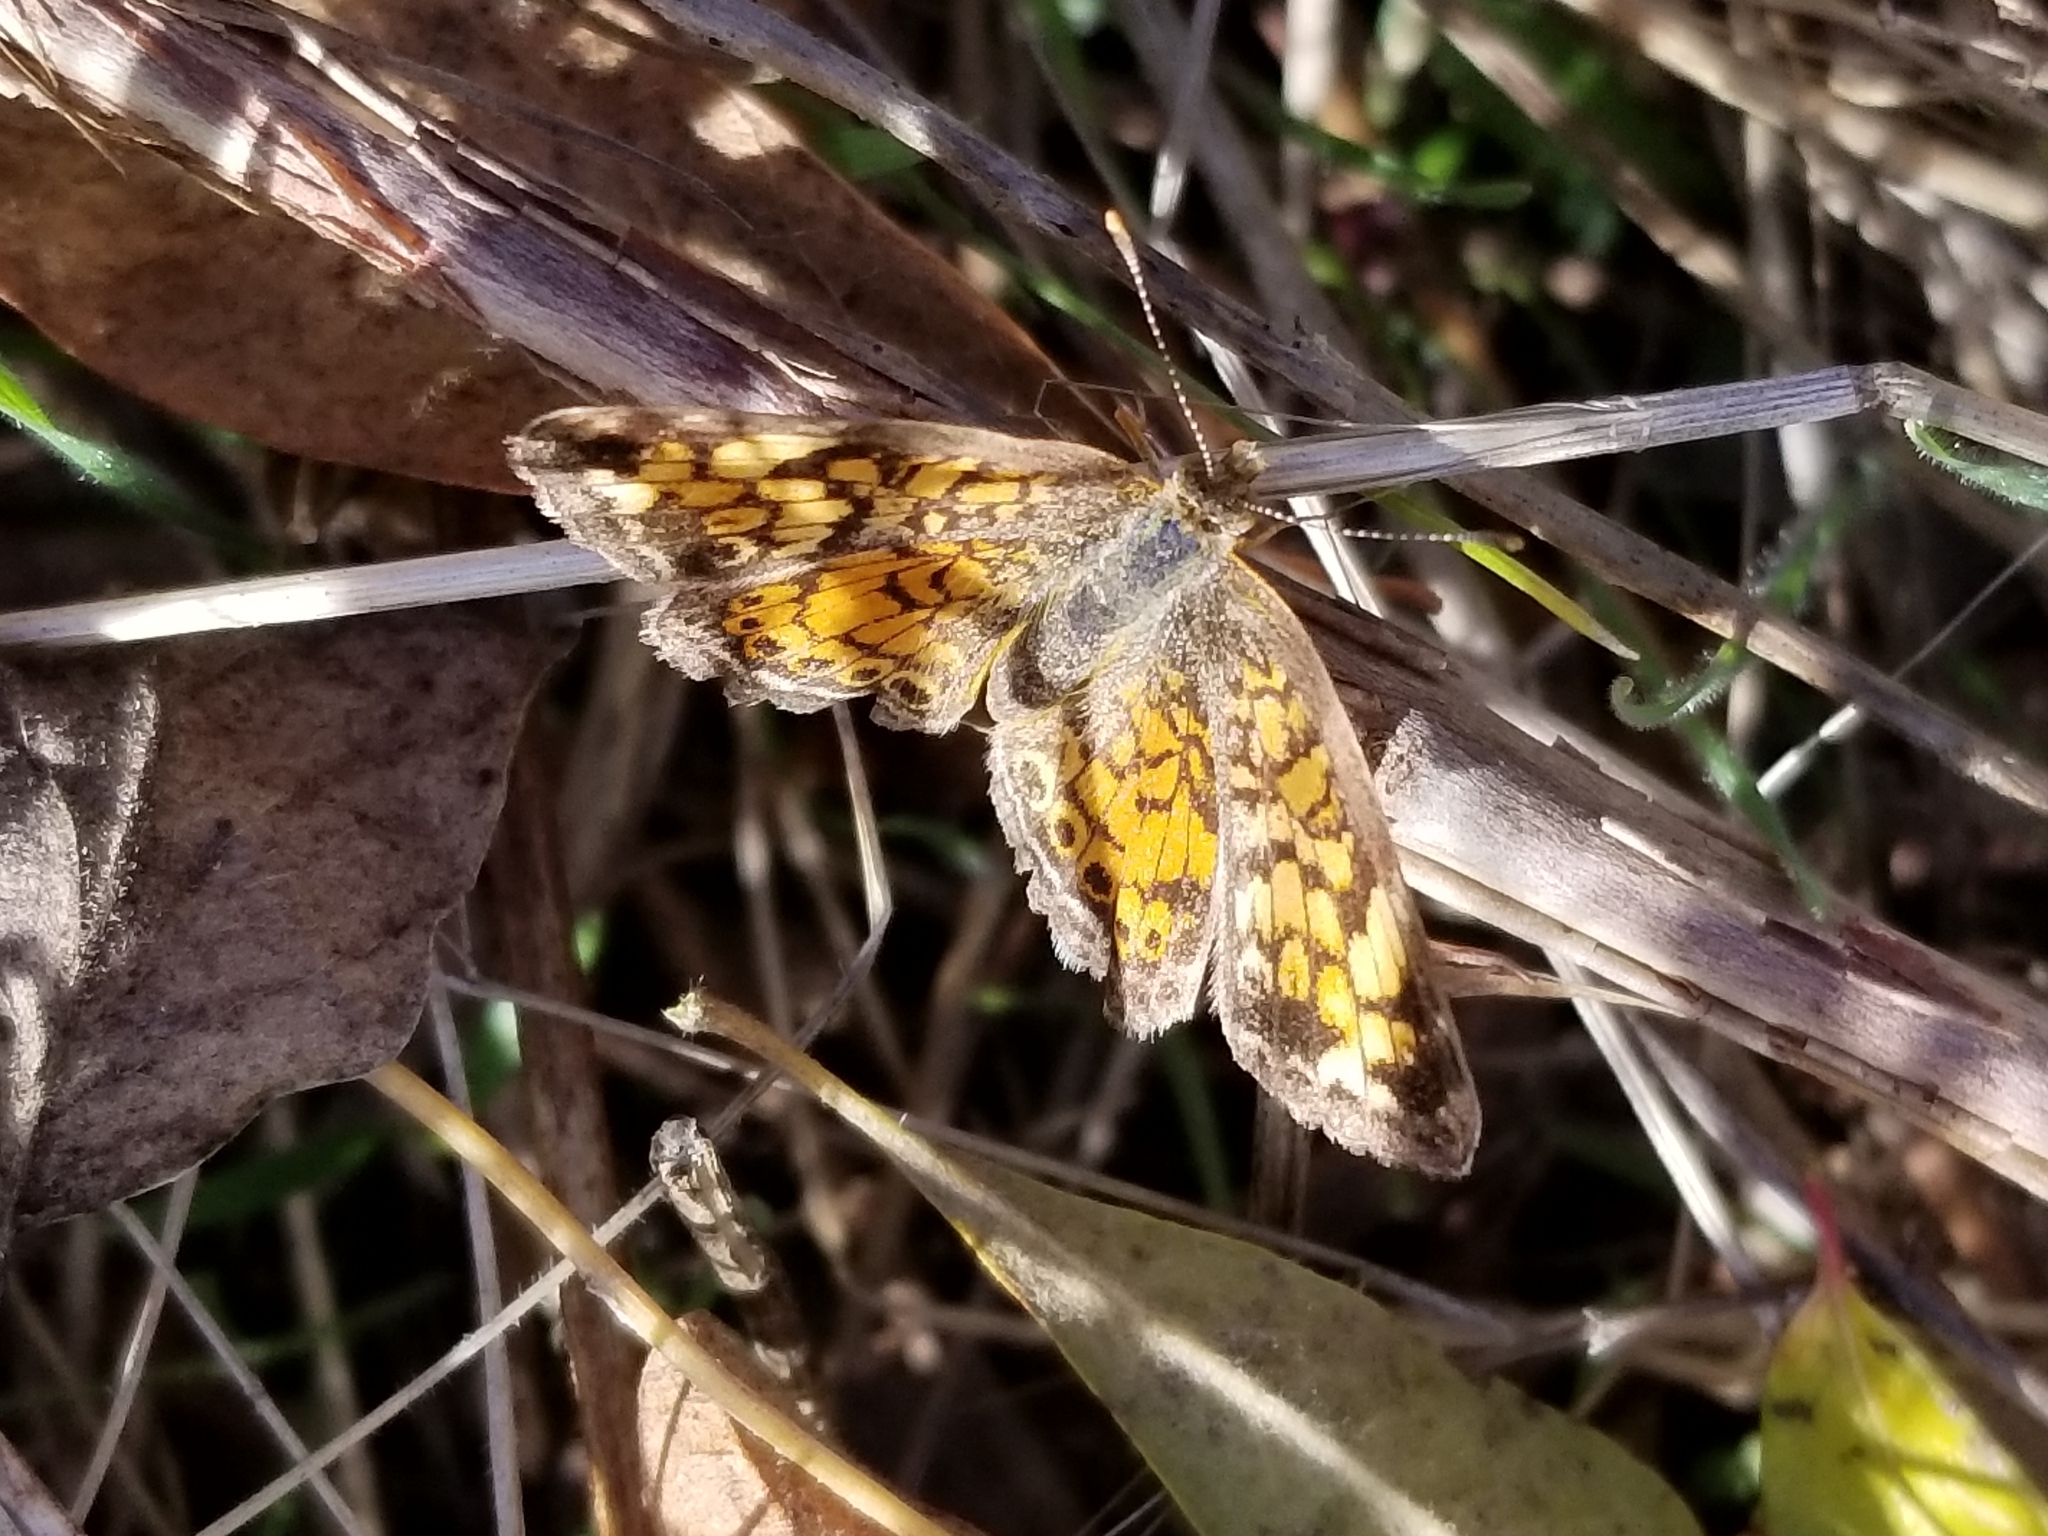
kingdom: Animalia
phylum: Arthropoda
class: Insecta
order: Lepidoptera
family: Nymphalidae
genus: Phyciodes
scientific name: Phyciodes tharos
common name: Pearl crescent
